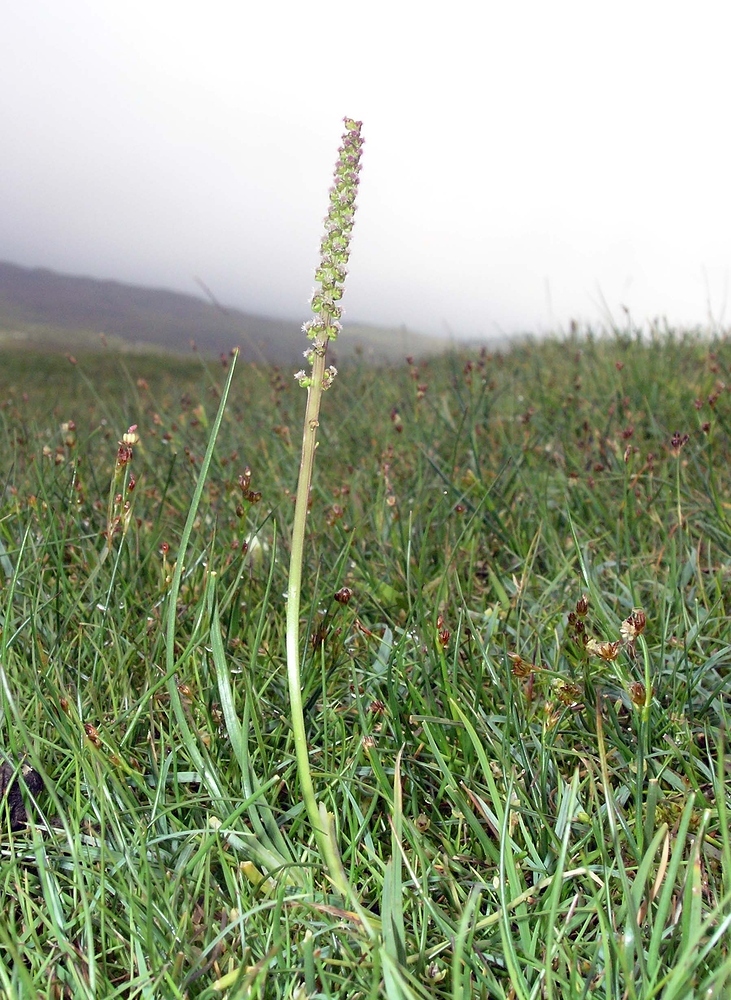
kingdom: Plantae
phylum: Tracheophyta
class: Liliopsida
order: Alismatales
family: Juncaginaceae
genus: Triglochin
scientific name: Triglochin maritima
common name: Sea arrowgrass
